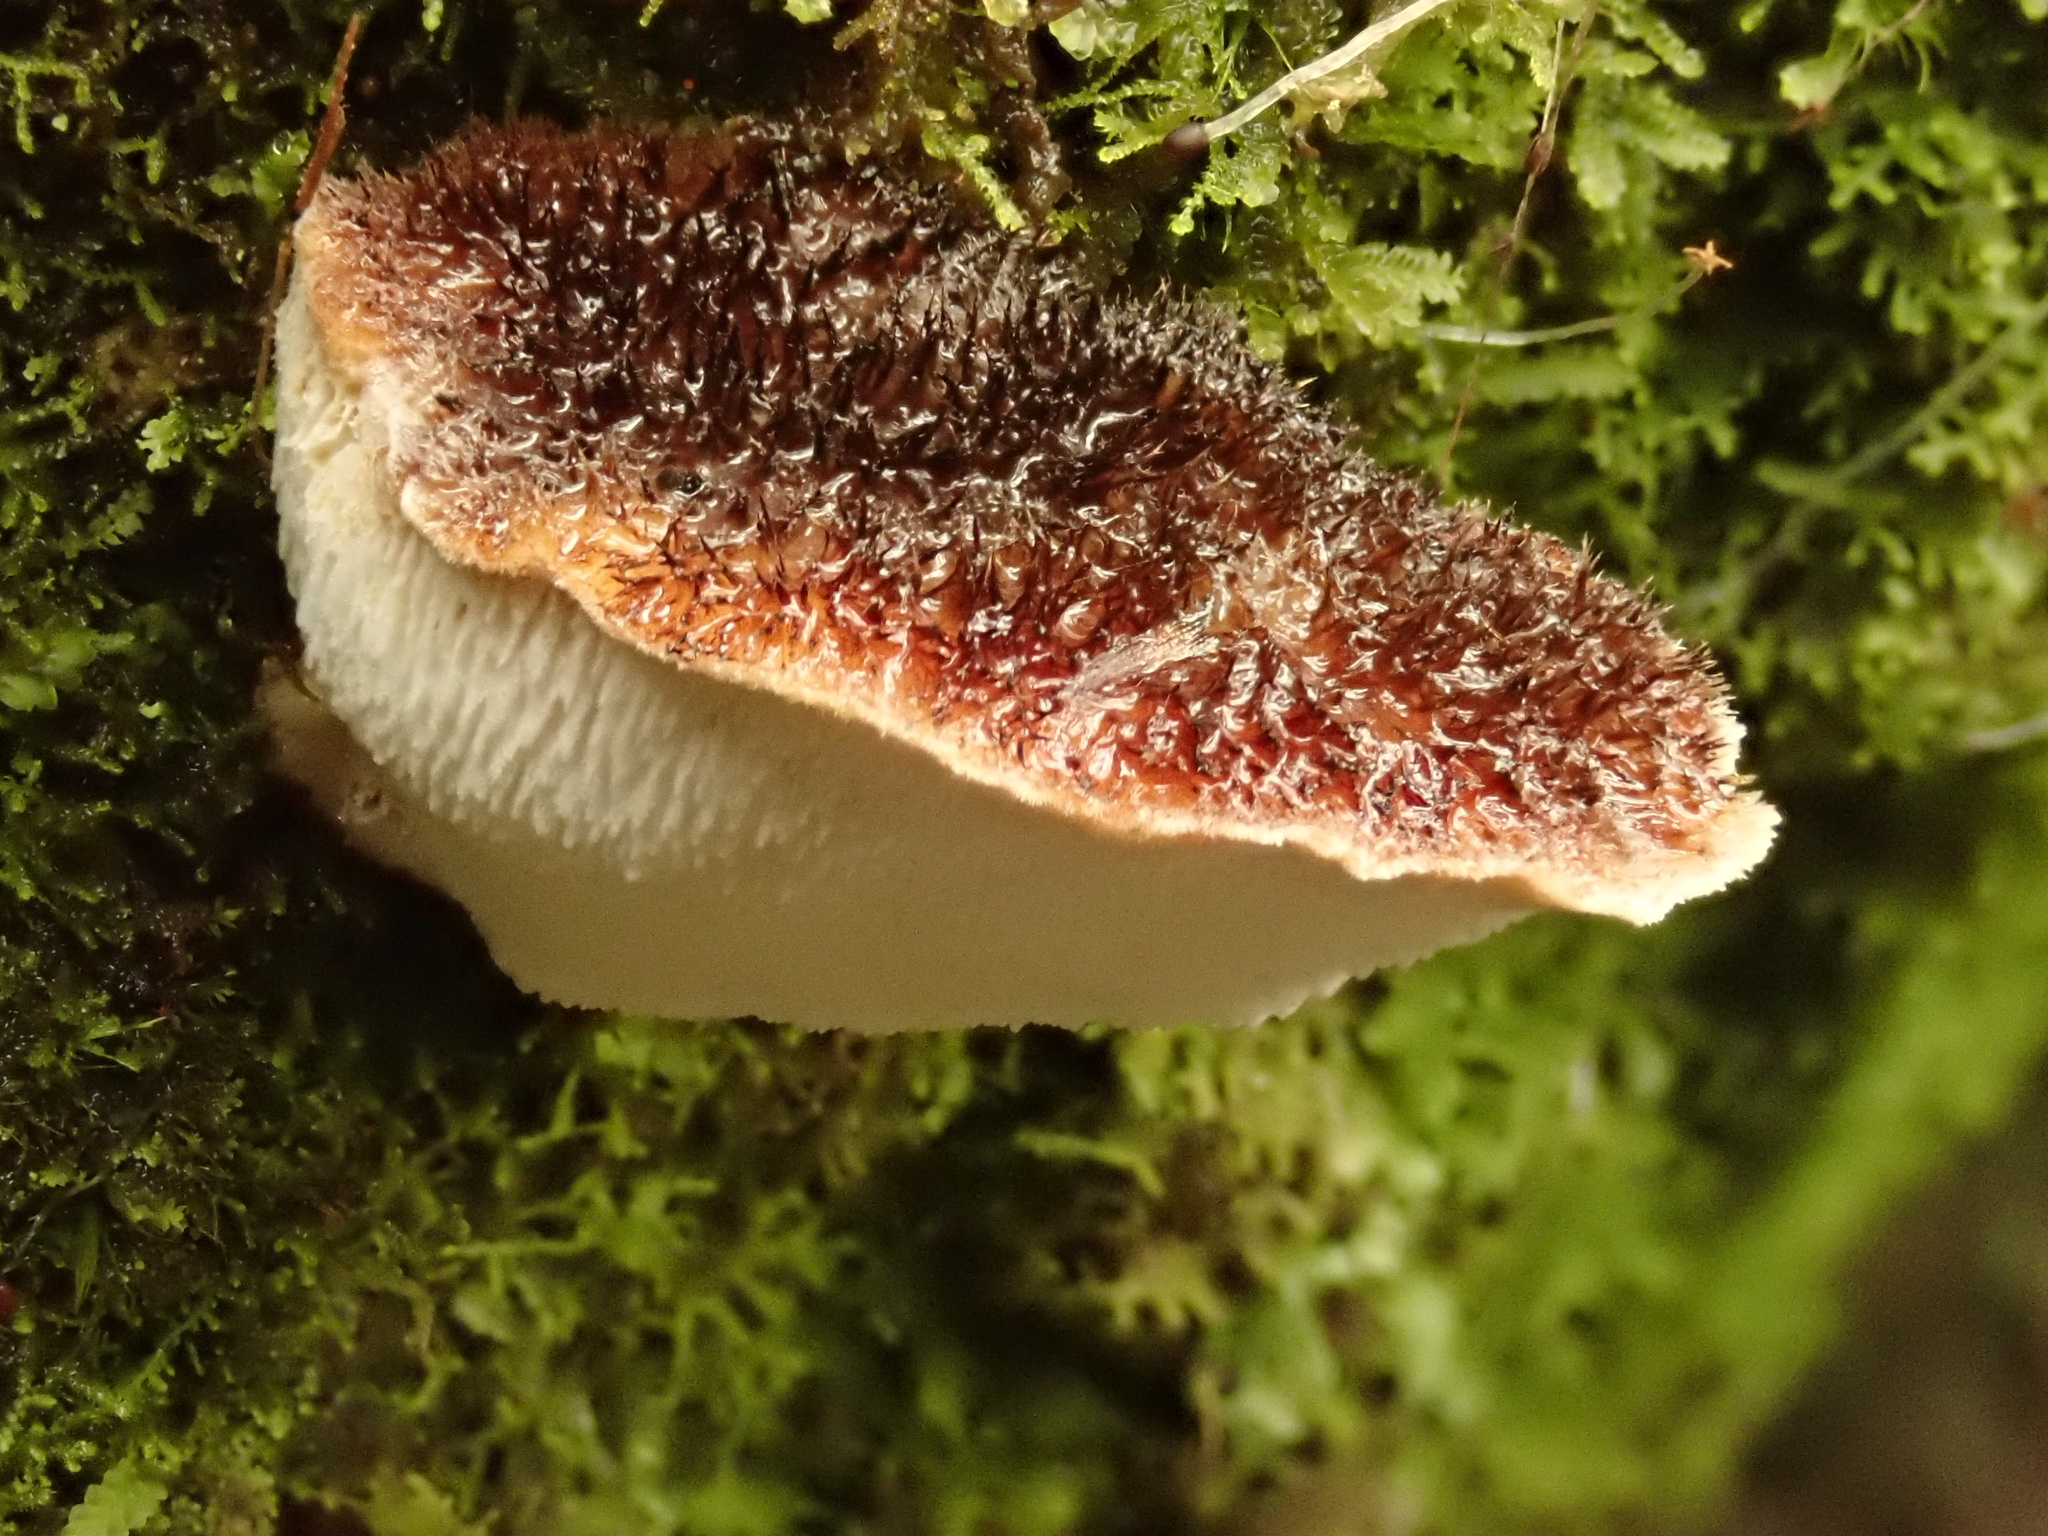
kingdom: Fungi
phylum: Basidiomycota
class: Agaricomycetes
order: Polyporales
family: Dacryobolaceae
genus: Oligoporus
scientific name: Oligoporus pelliculosus
